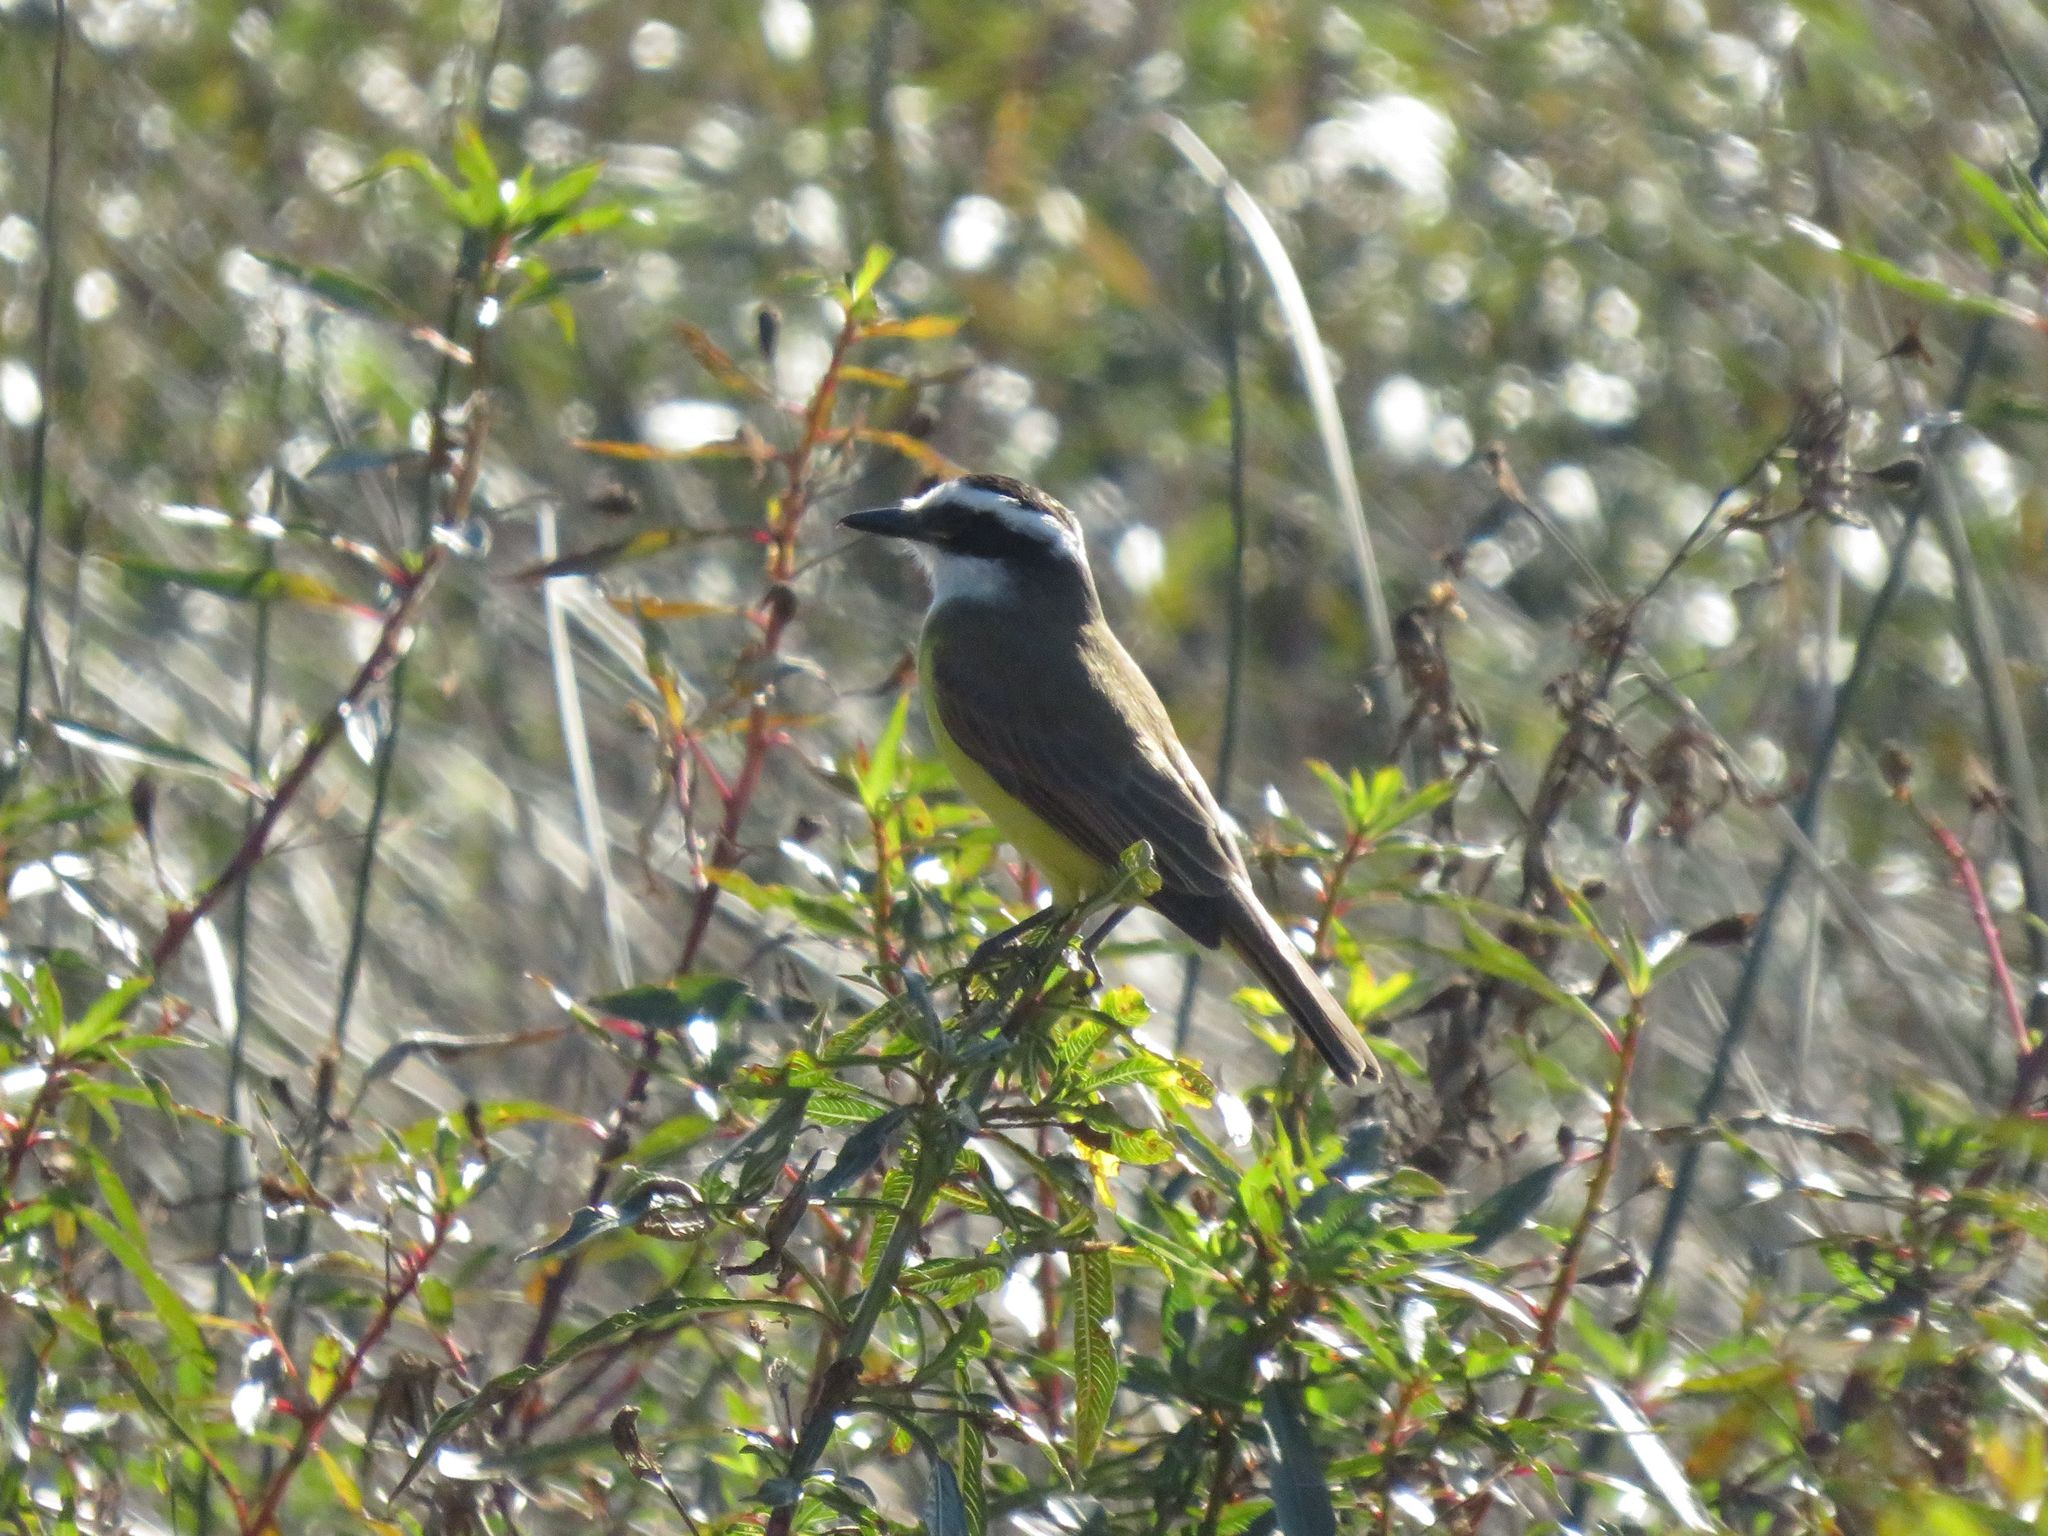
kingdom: Animalia
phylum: Chordata
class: Aves
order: Passeriformes
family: Tyrannidae
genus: Pitangus
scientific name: Pitangus sulphuratus
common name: Great kiskadee
